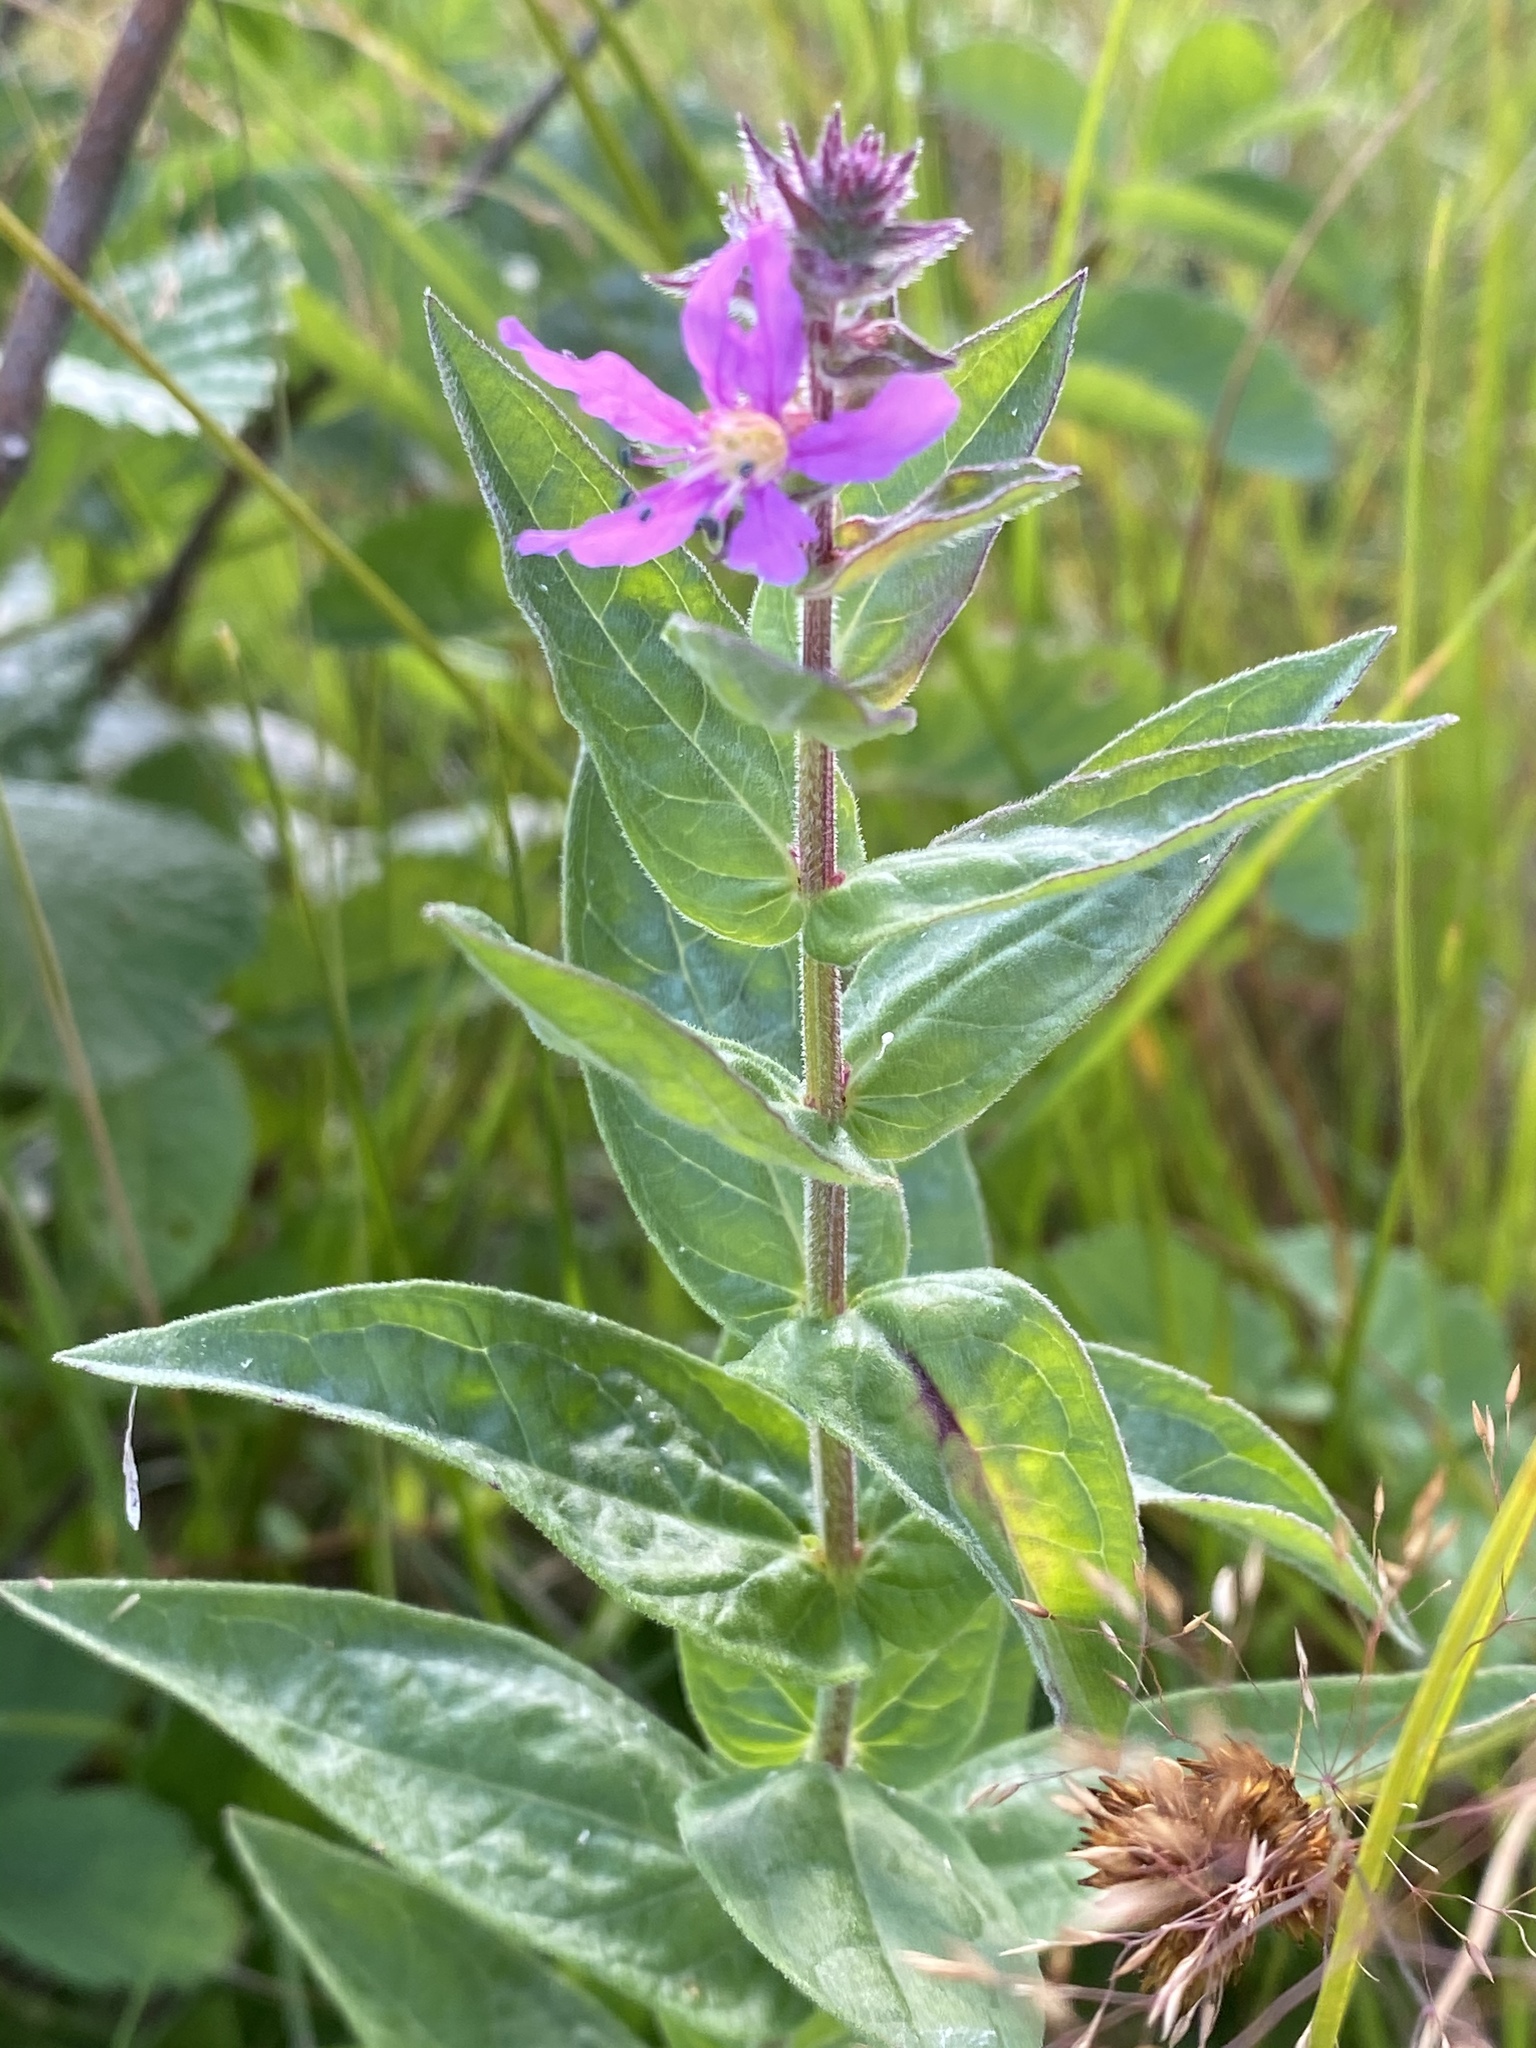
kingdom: Plantae
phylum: Tracheophyta
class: Magnoliopsida
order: Myrtales
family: Lythraceae
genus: Lythrum
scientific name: Lythrum salicaria
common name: Purple loosestrife
